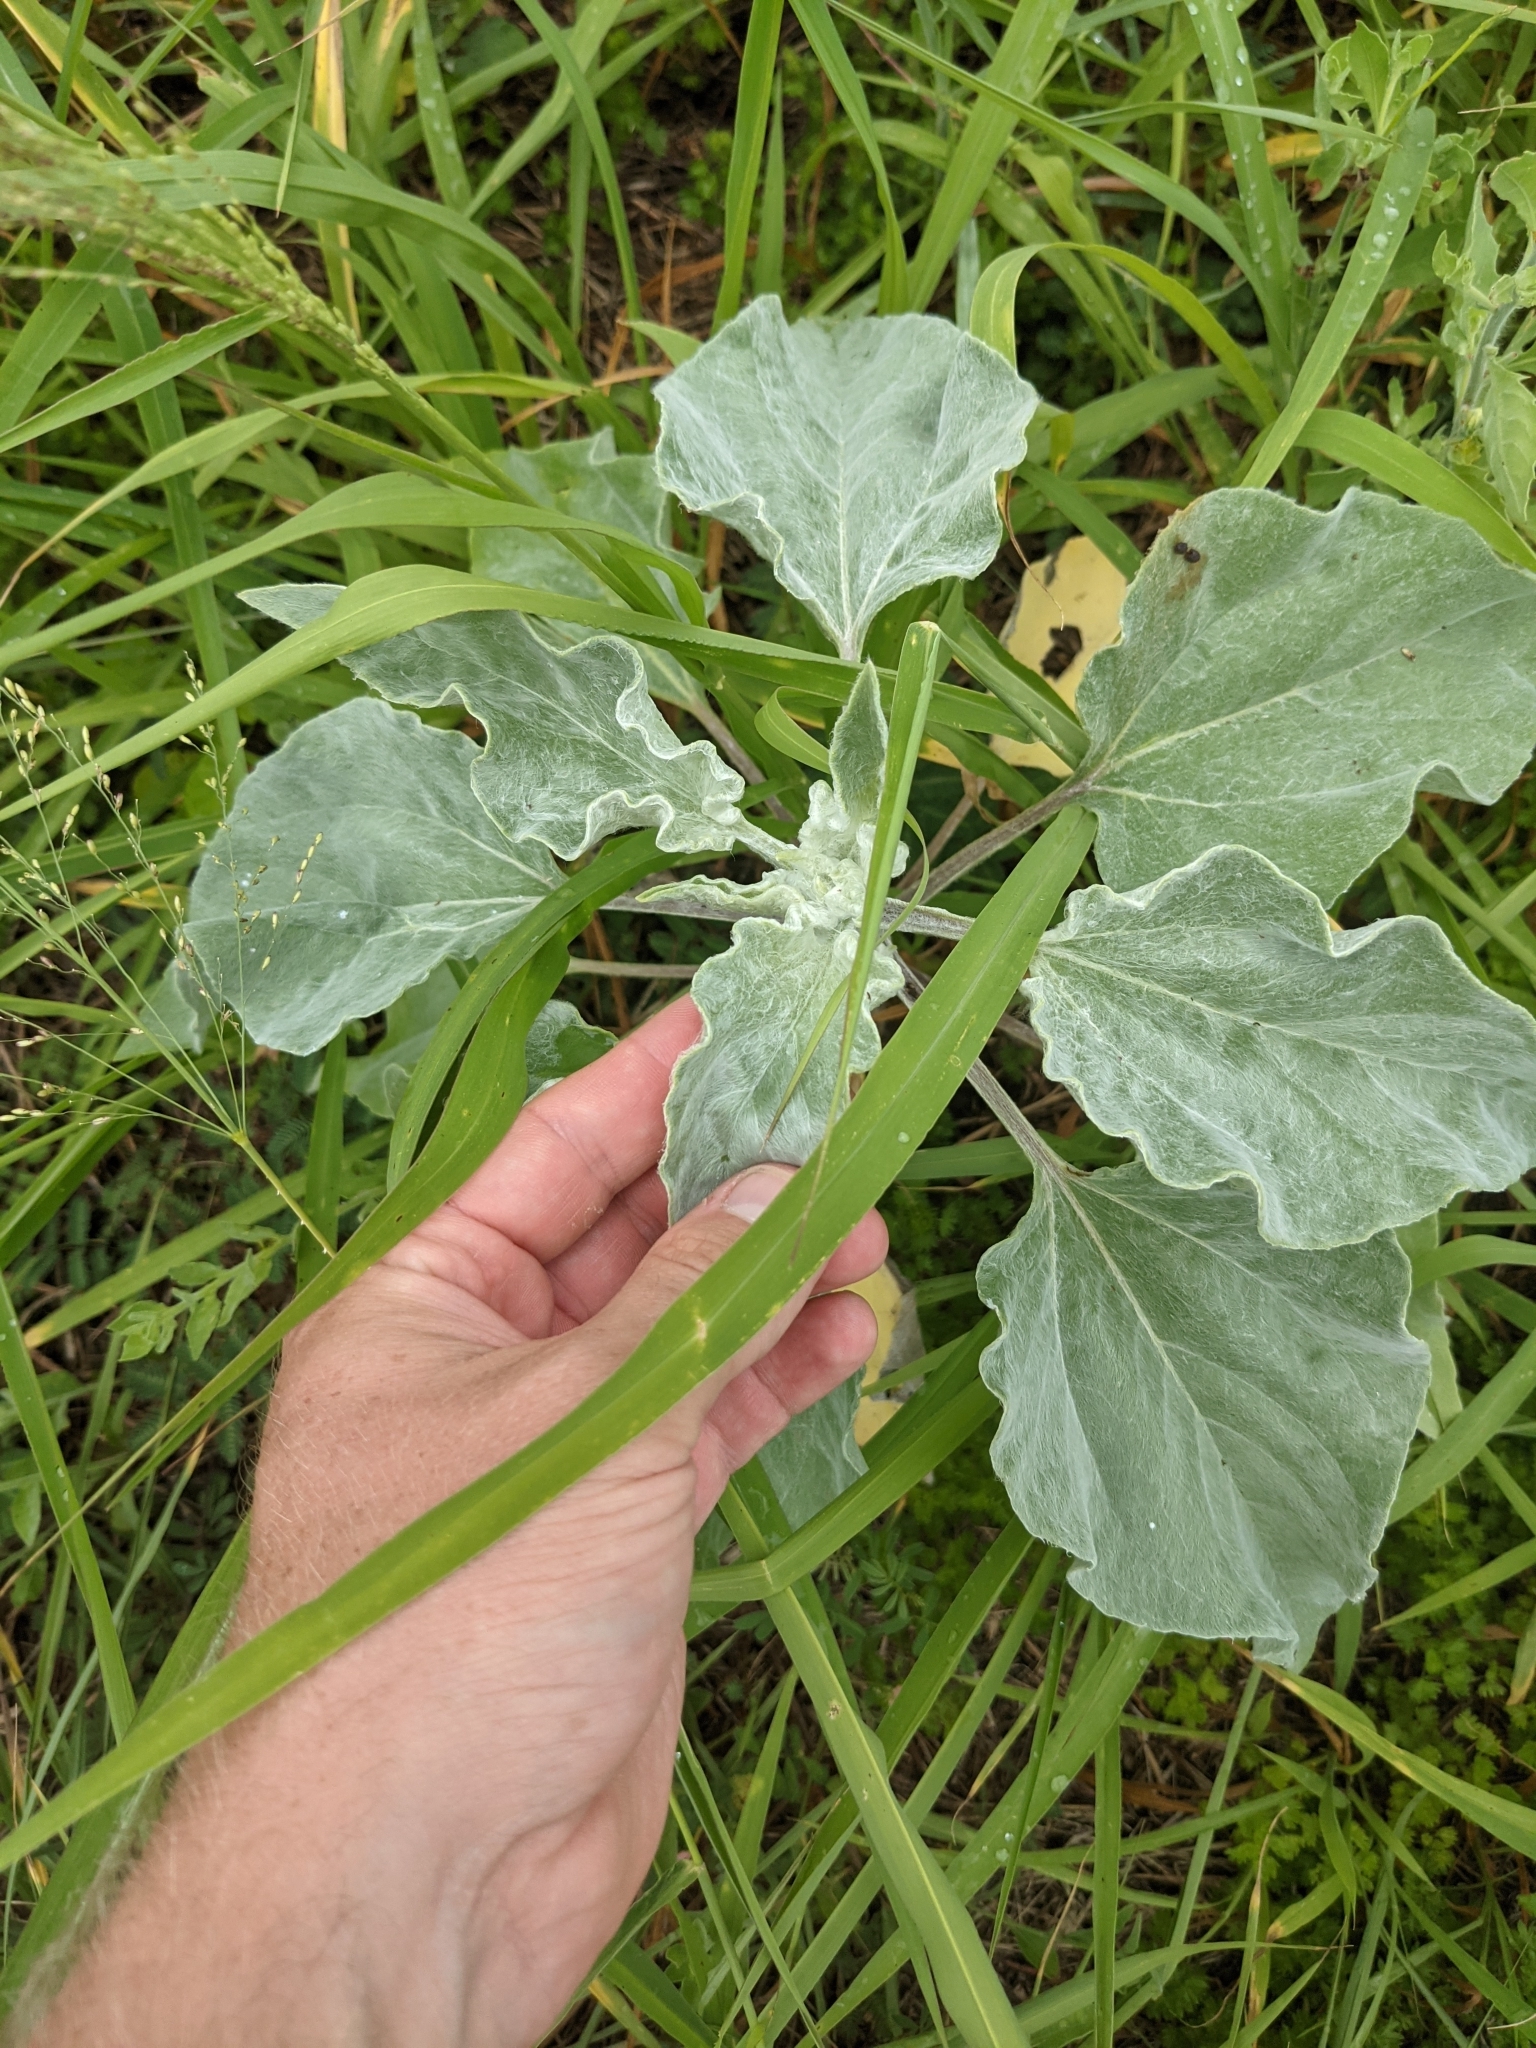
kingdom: Plantae
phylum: Tracheophyta
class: Magnoliopsida
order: Asterales
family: Asteraceae
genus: Helianthus
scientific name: Helianthus argophyllus
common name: Silverleaf sunflower
